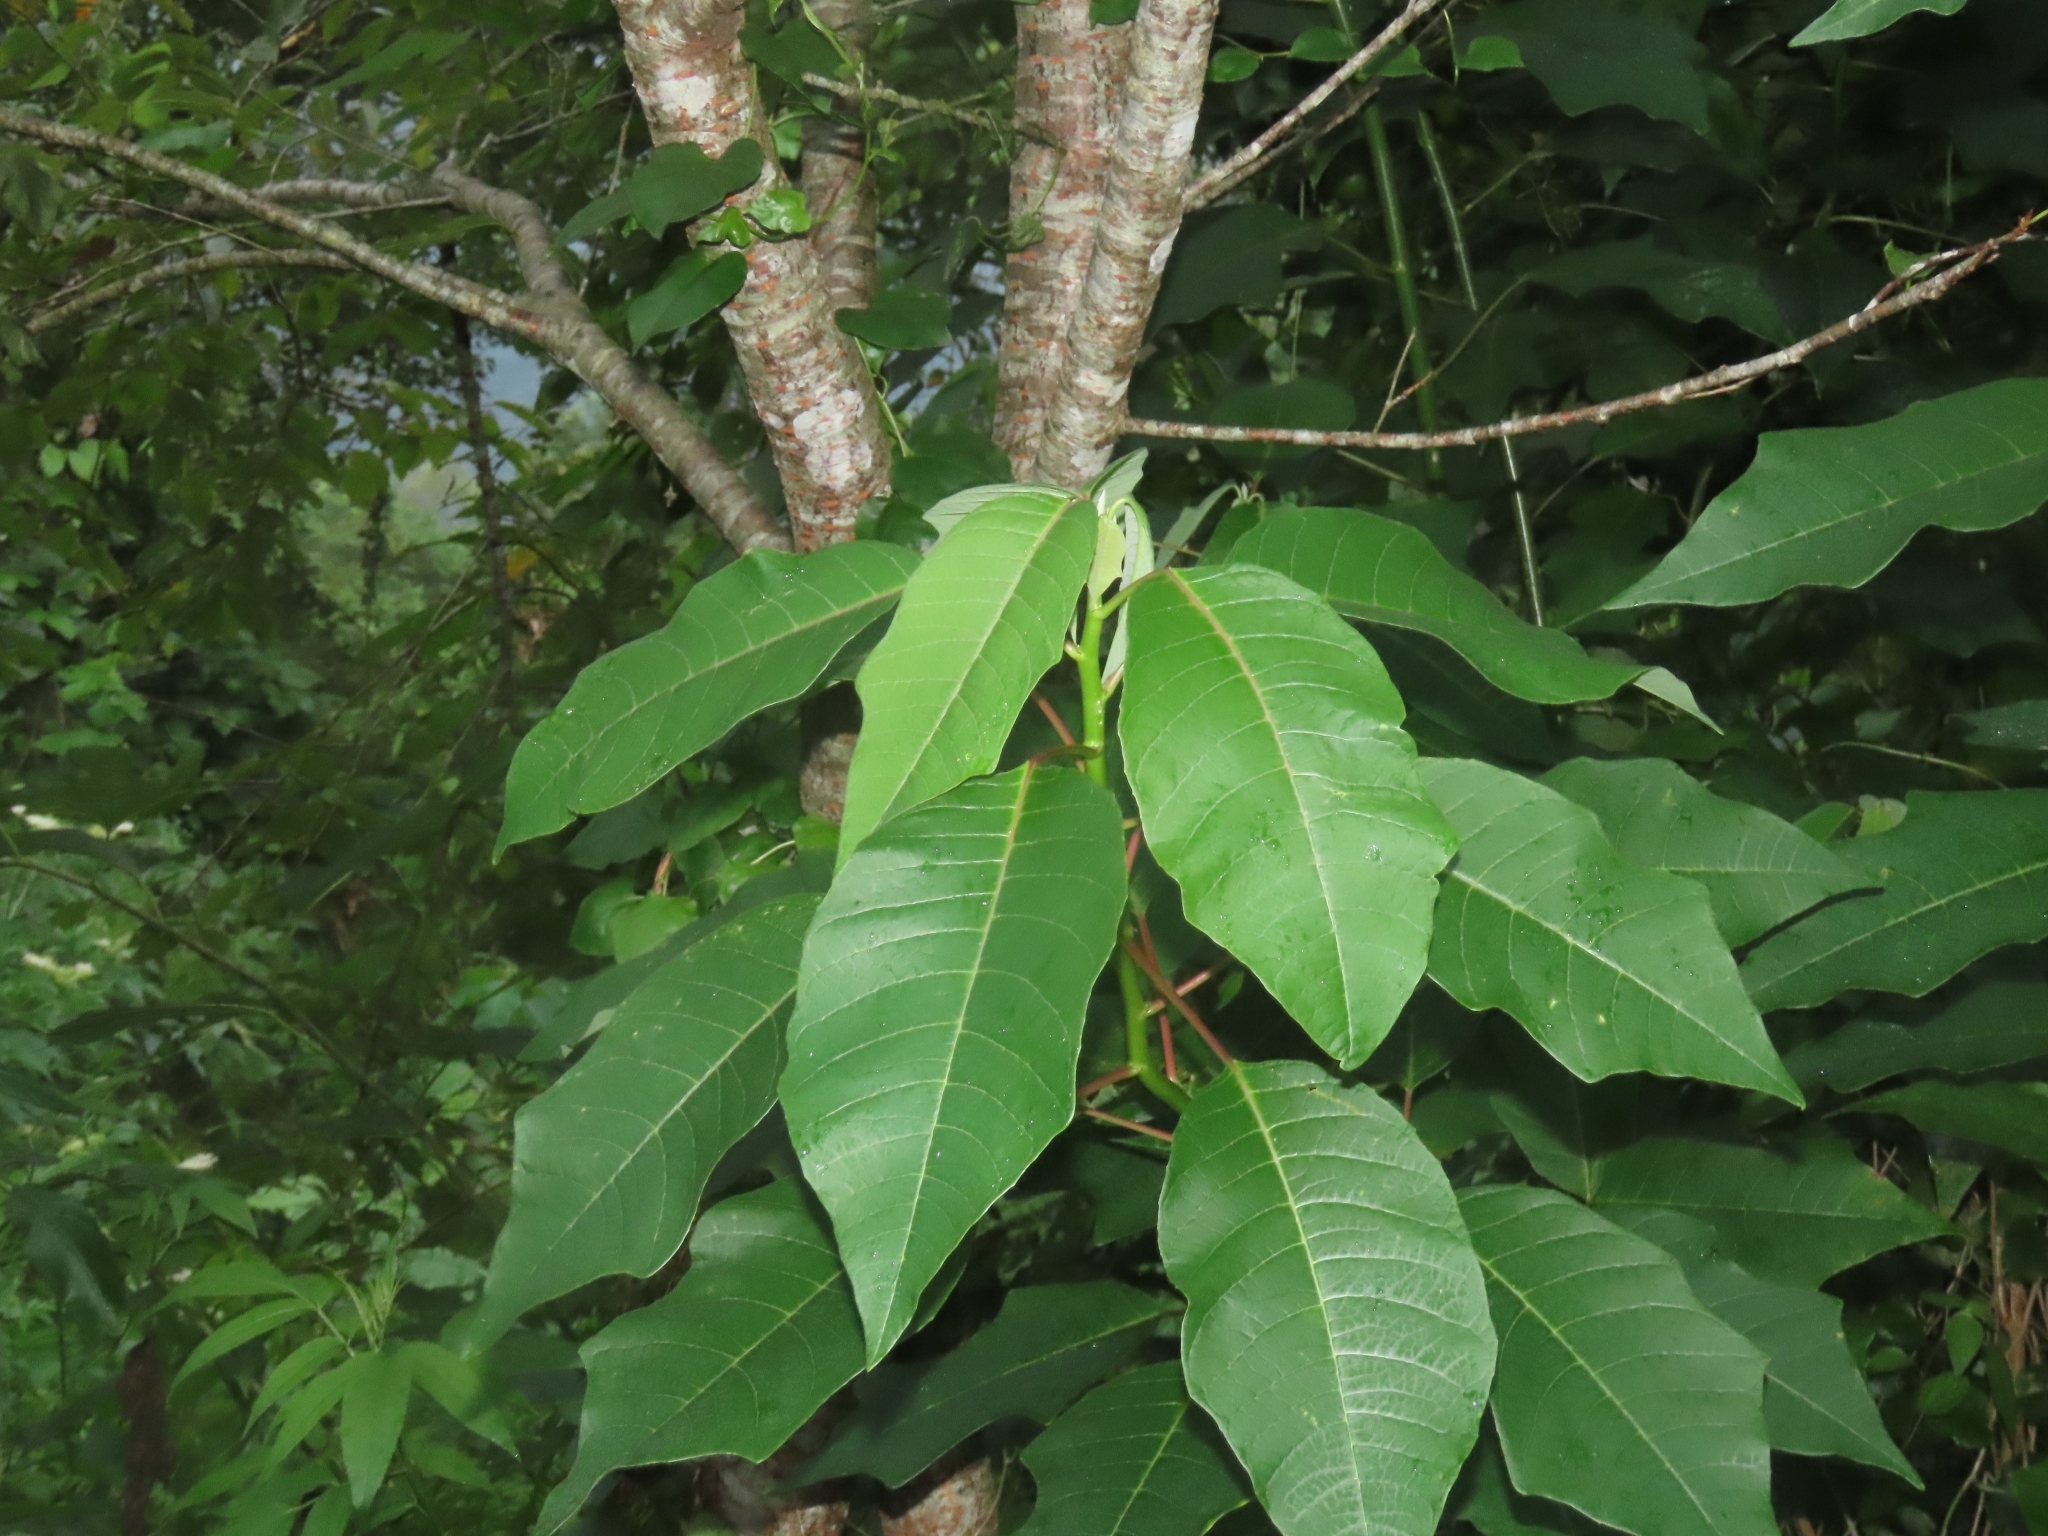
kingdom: Plantae
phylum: Tracheophyta
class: Magnoliopsida
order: Malpighiales
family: Euphorbiaceae
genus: Euphorbia
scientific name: Euphorbia pulcherrima
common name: Christmas-flower
